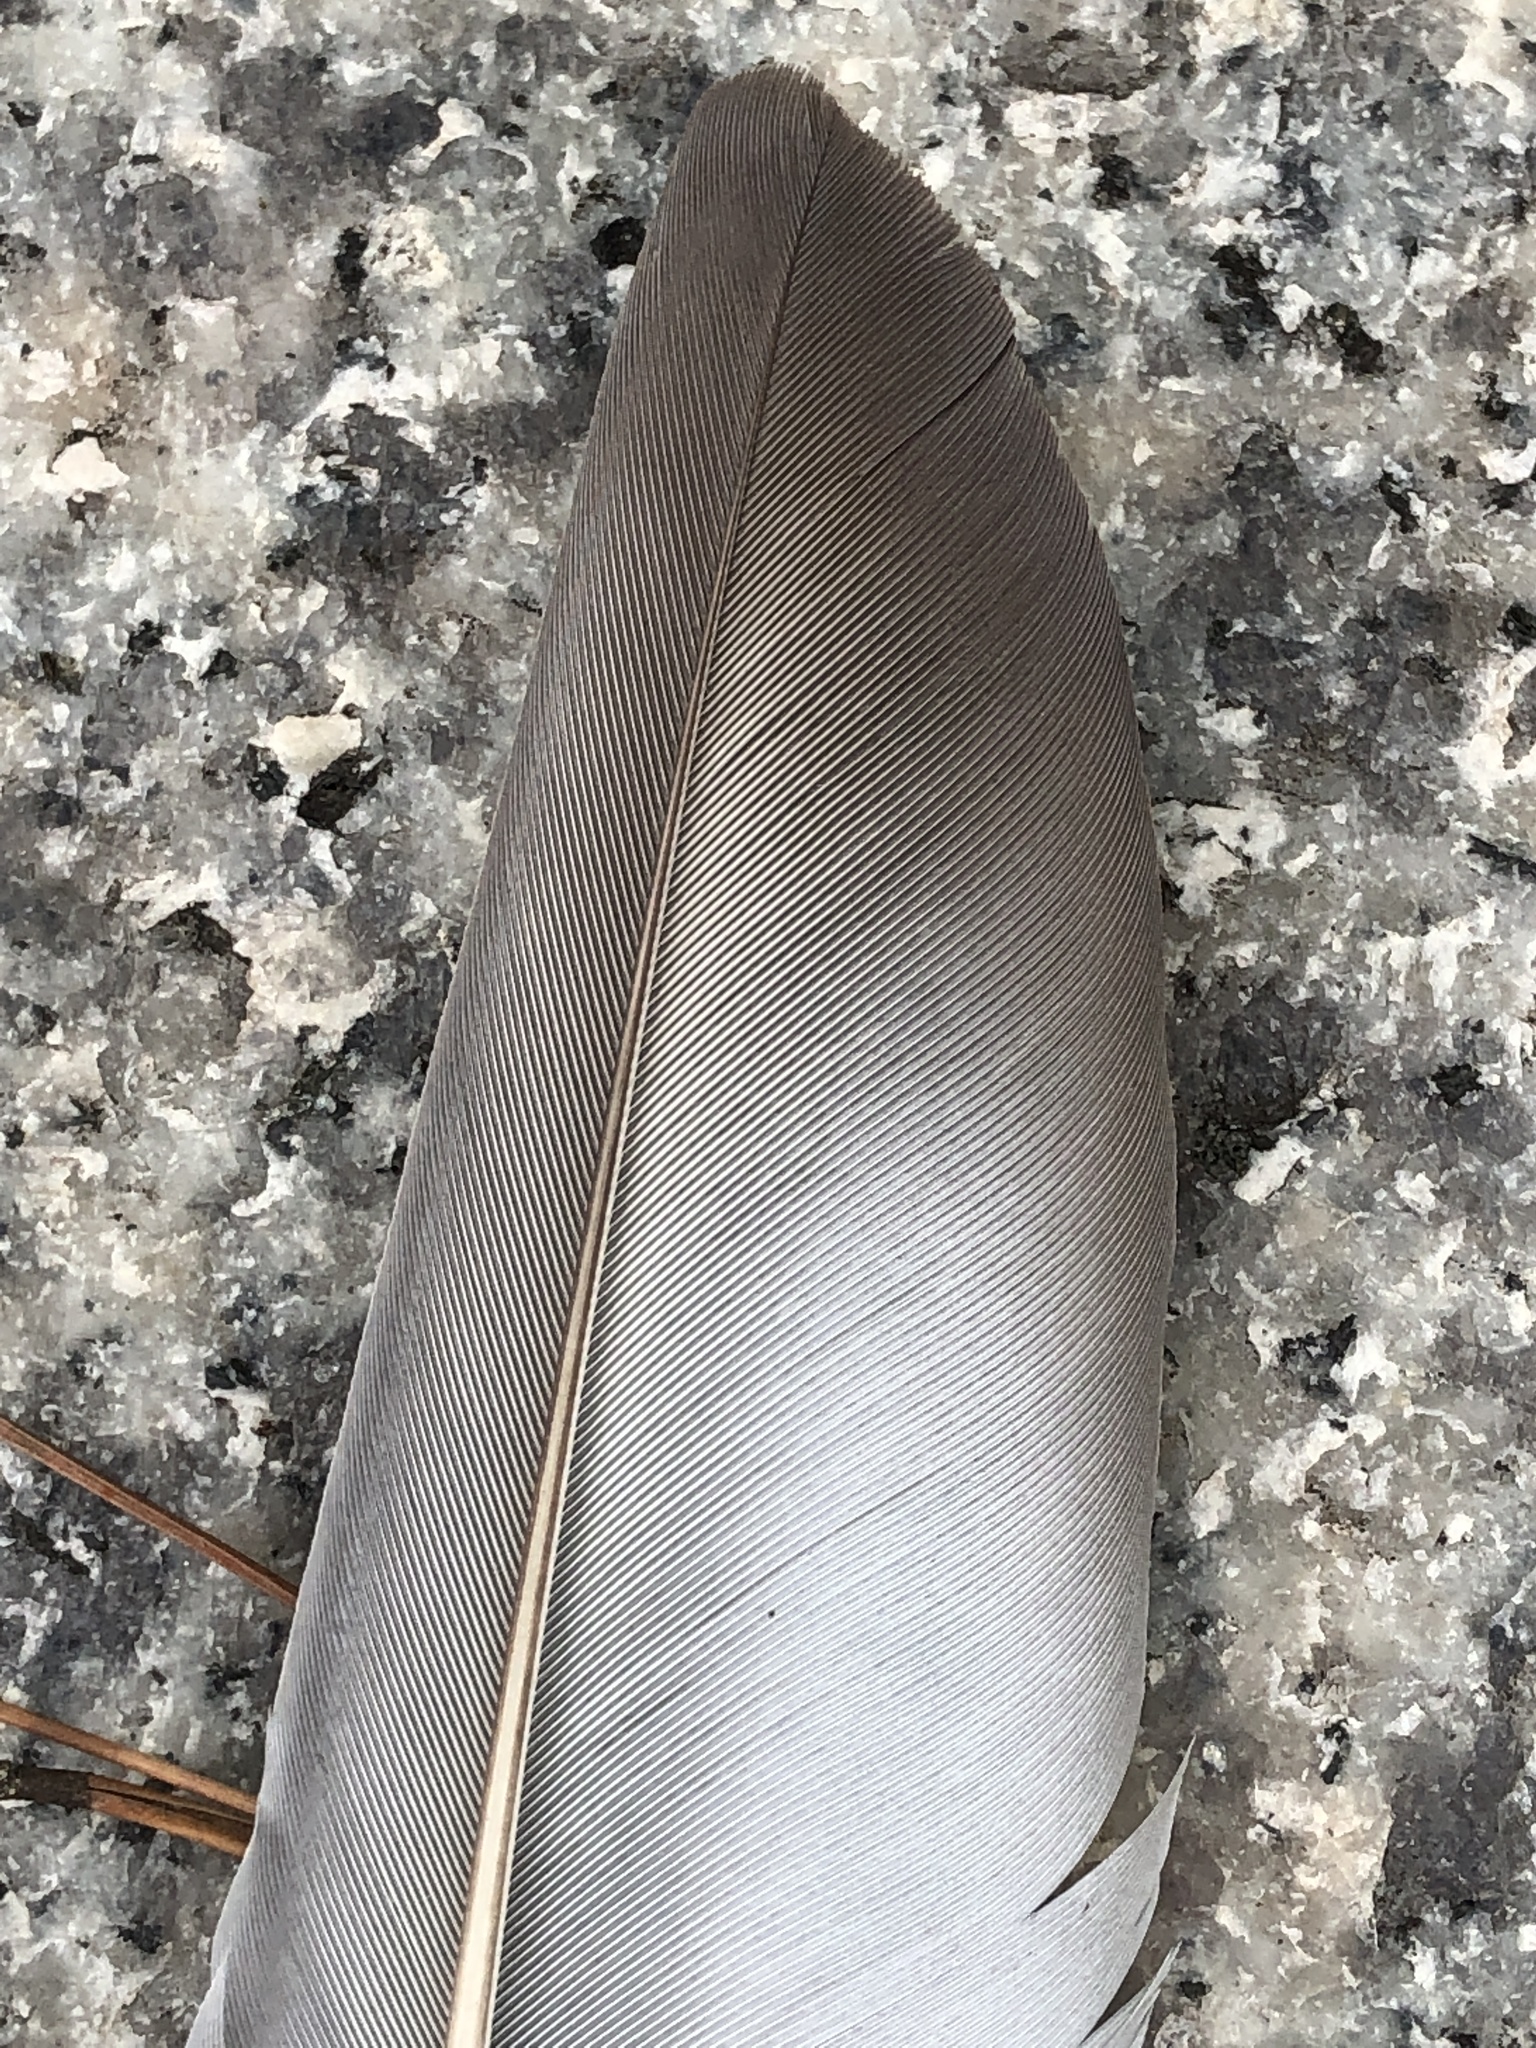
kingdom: Animalia
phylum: Chordata
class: Aves
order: Columbiformes
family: Columbidae
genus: Columba
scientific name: Columba livia
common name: Rock pigeon
